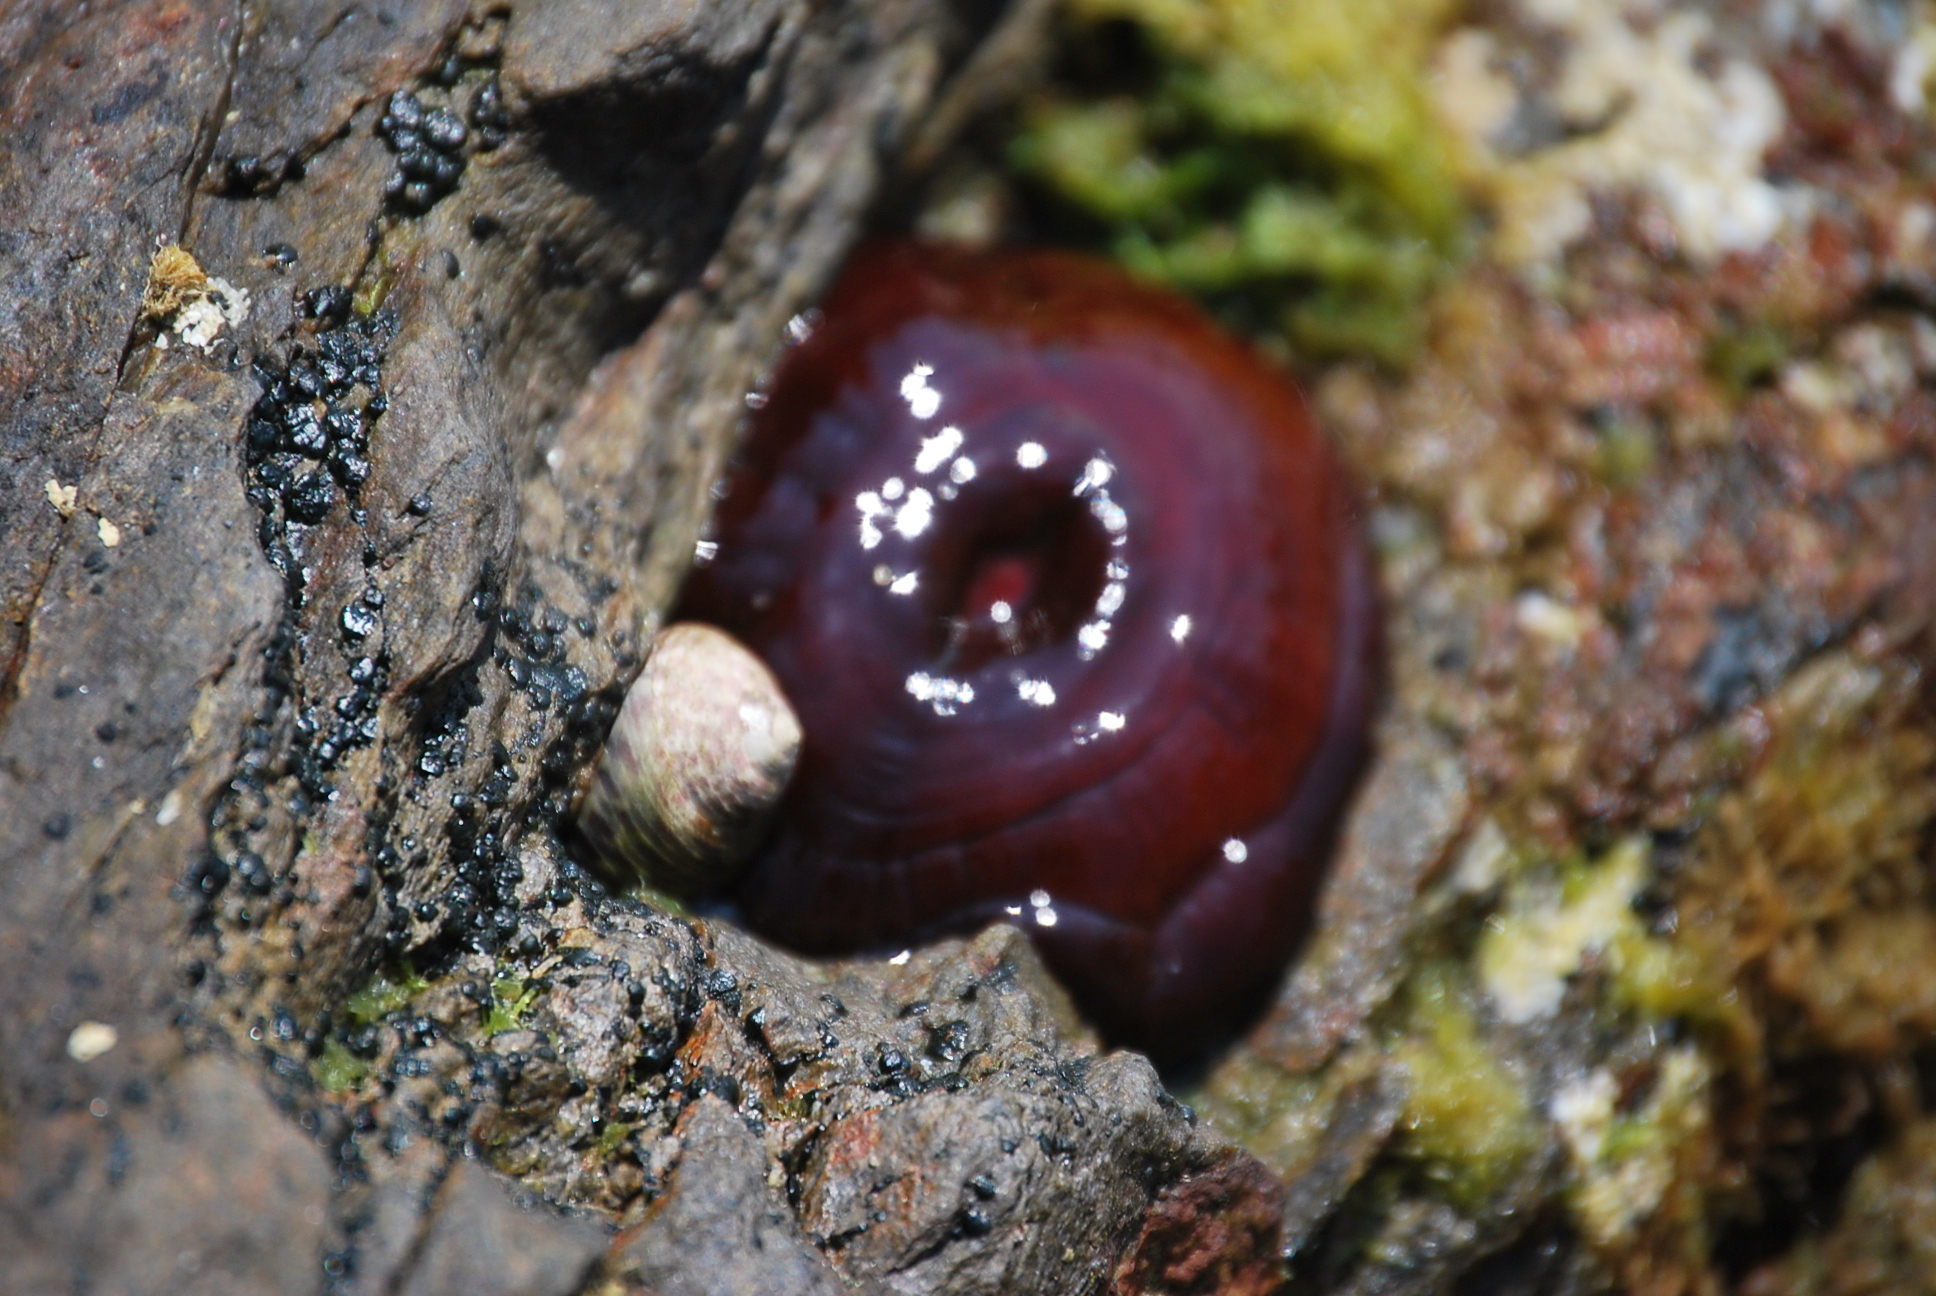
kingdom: Animalia
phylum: Cnidaria
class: Anthozoa
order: Actiniaria
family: Actiniidae
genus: Actinia
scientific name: Actinia mediterranea
